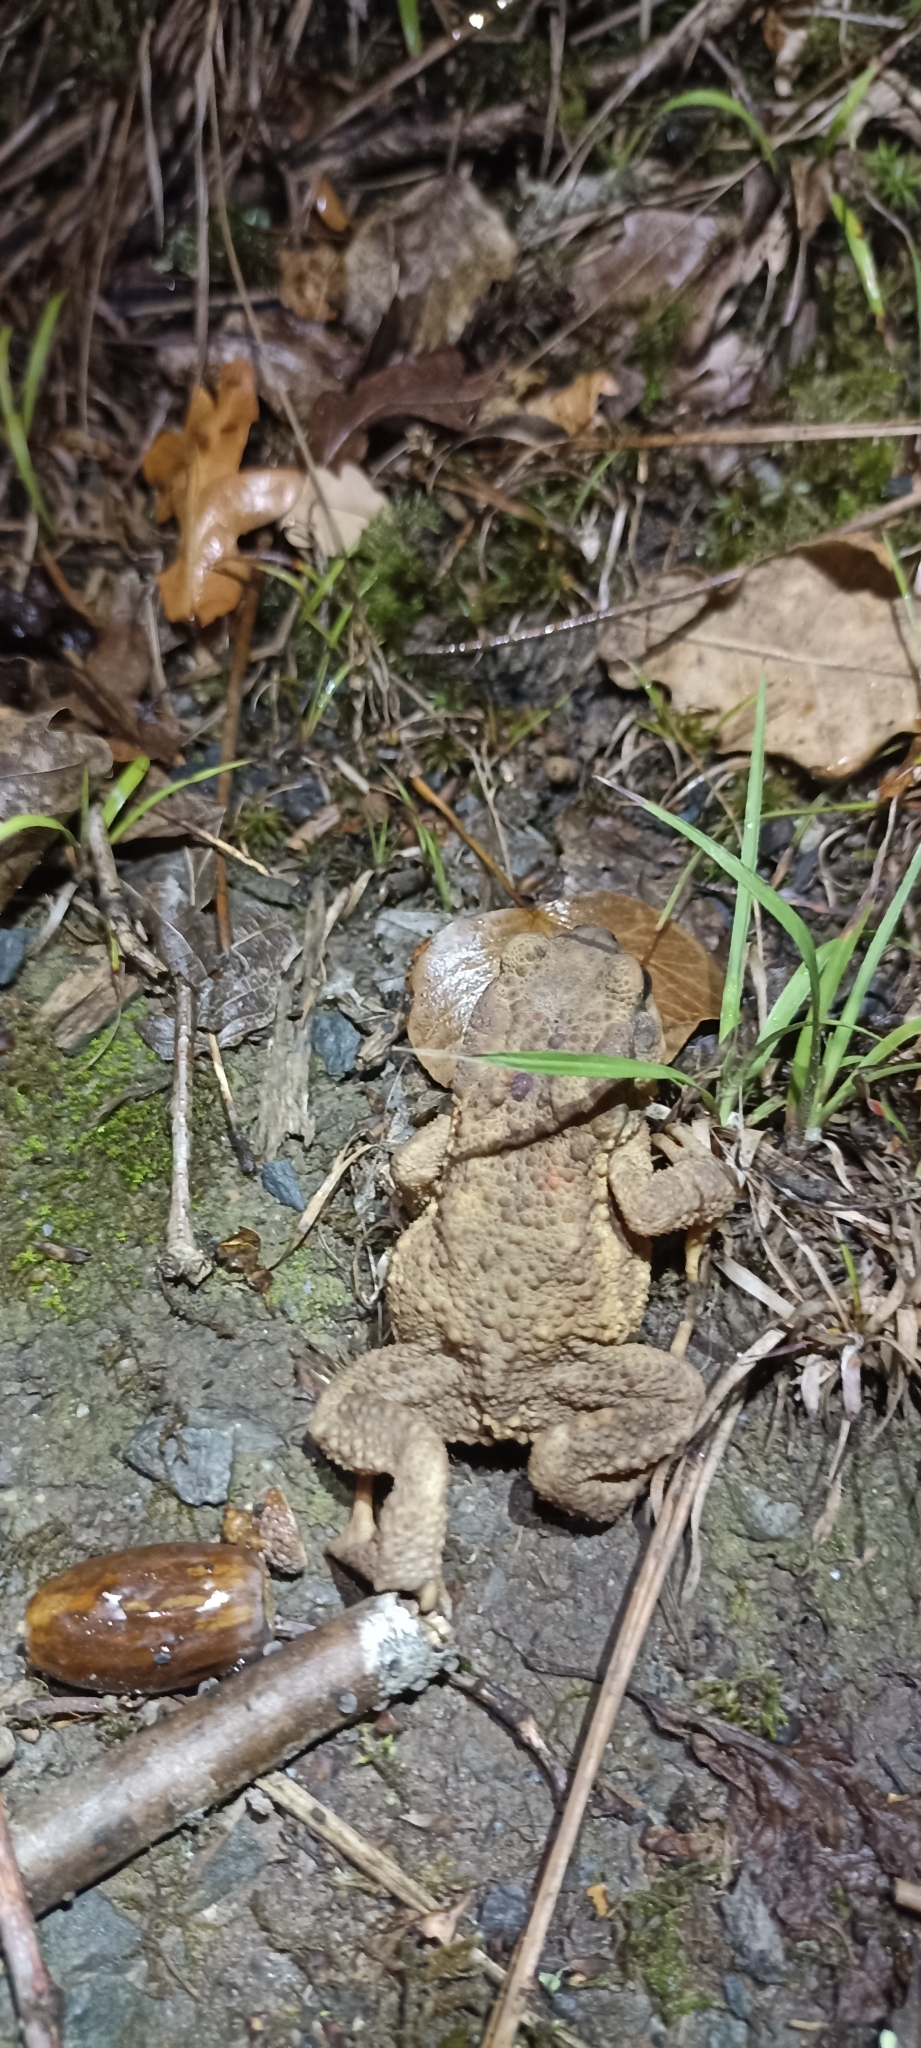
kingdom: Animalia
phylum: Chordata
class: Amphibia
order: Anura
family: Bufonidae
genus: Bufo
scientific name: Bufo spinosus
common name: Western common toad
